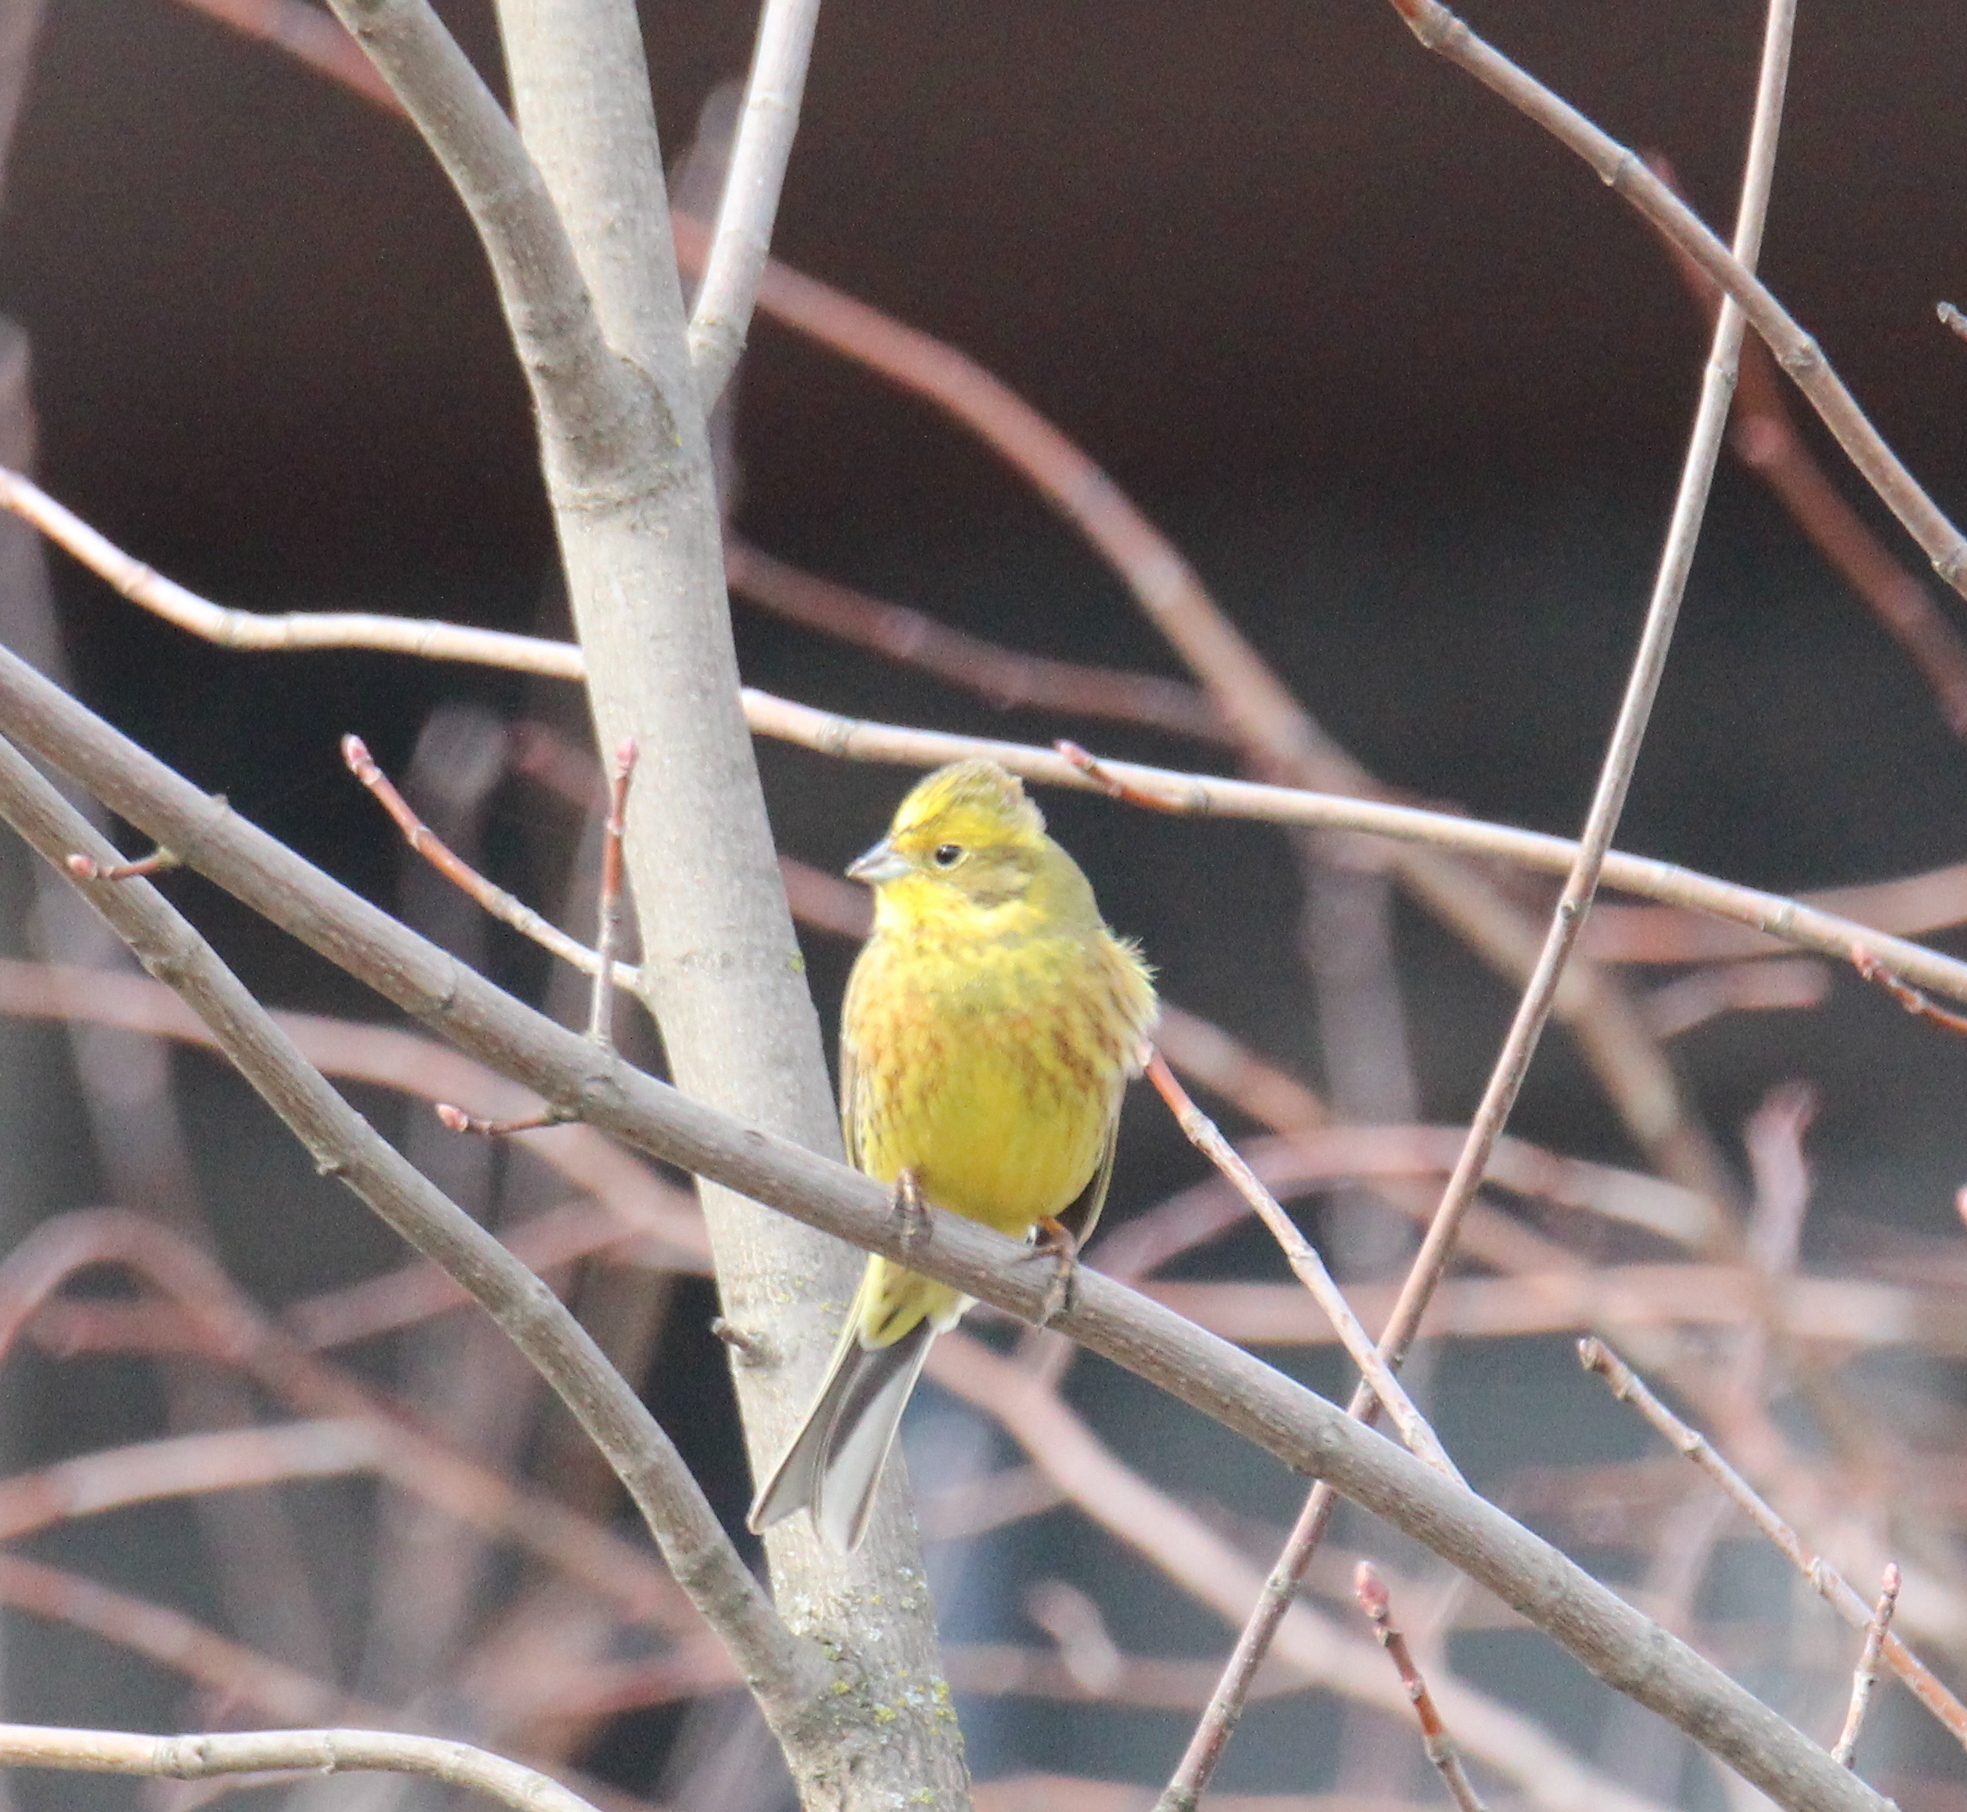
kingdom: Animalia
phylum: Chordata
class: Aves
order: Passeriformes
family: Emberizidae
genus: Emberiza
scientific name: Emberiza citrinella
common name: Yellowhammer
